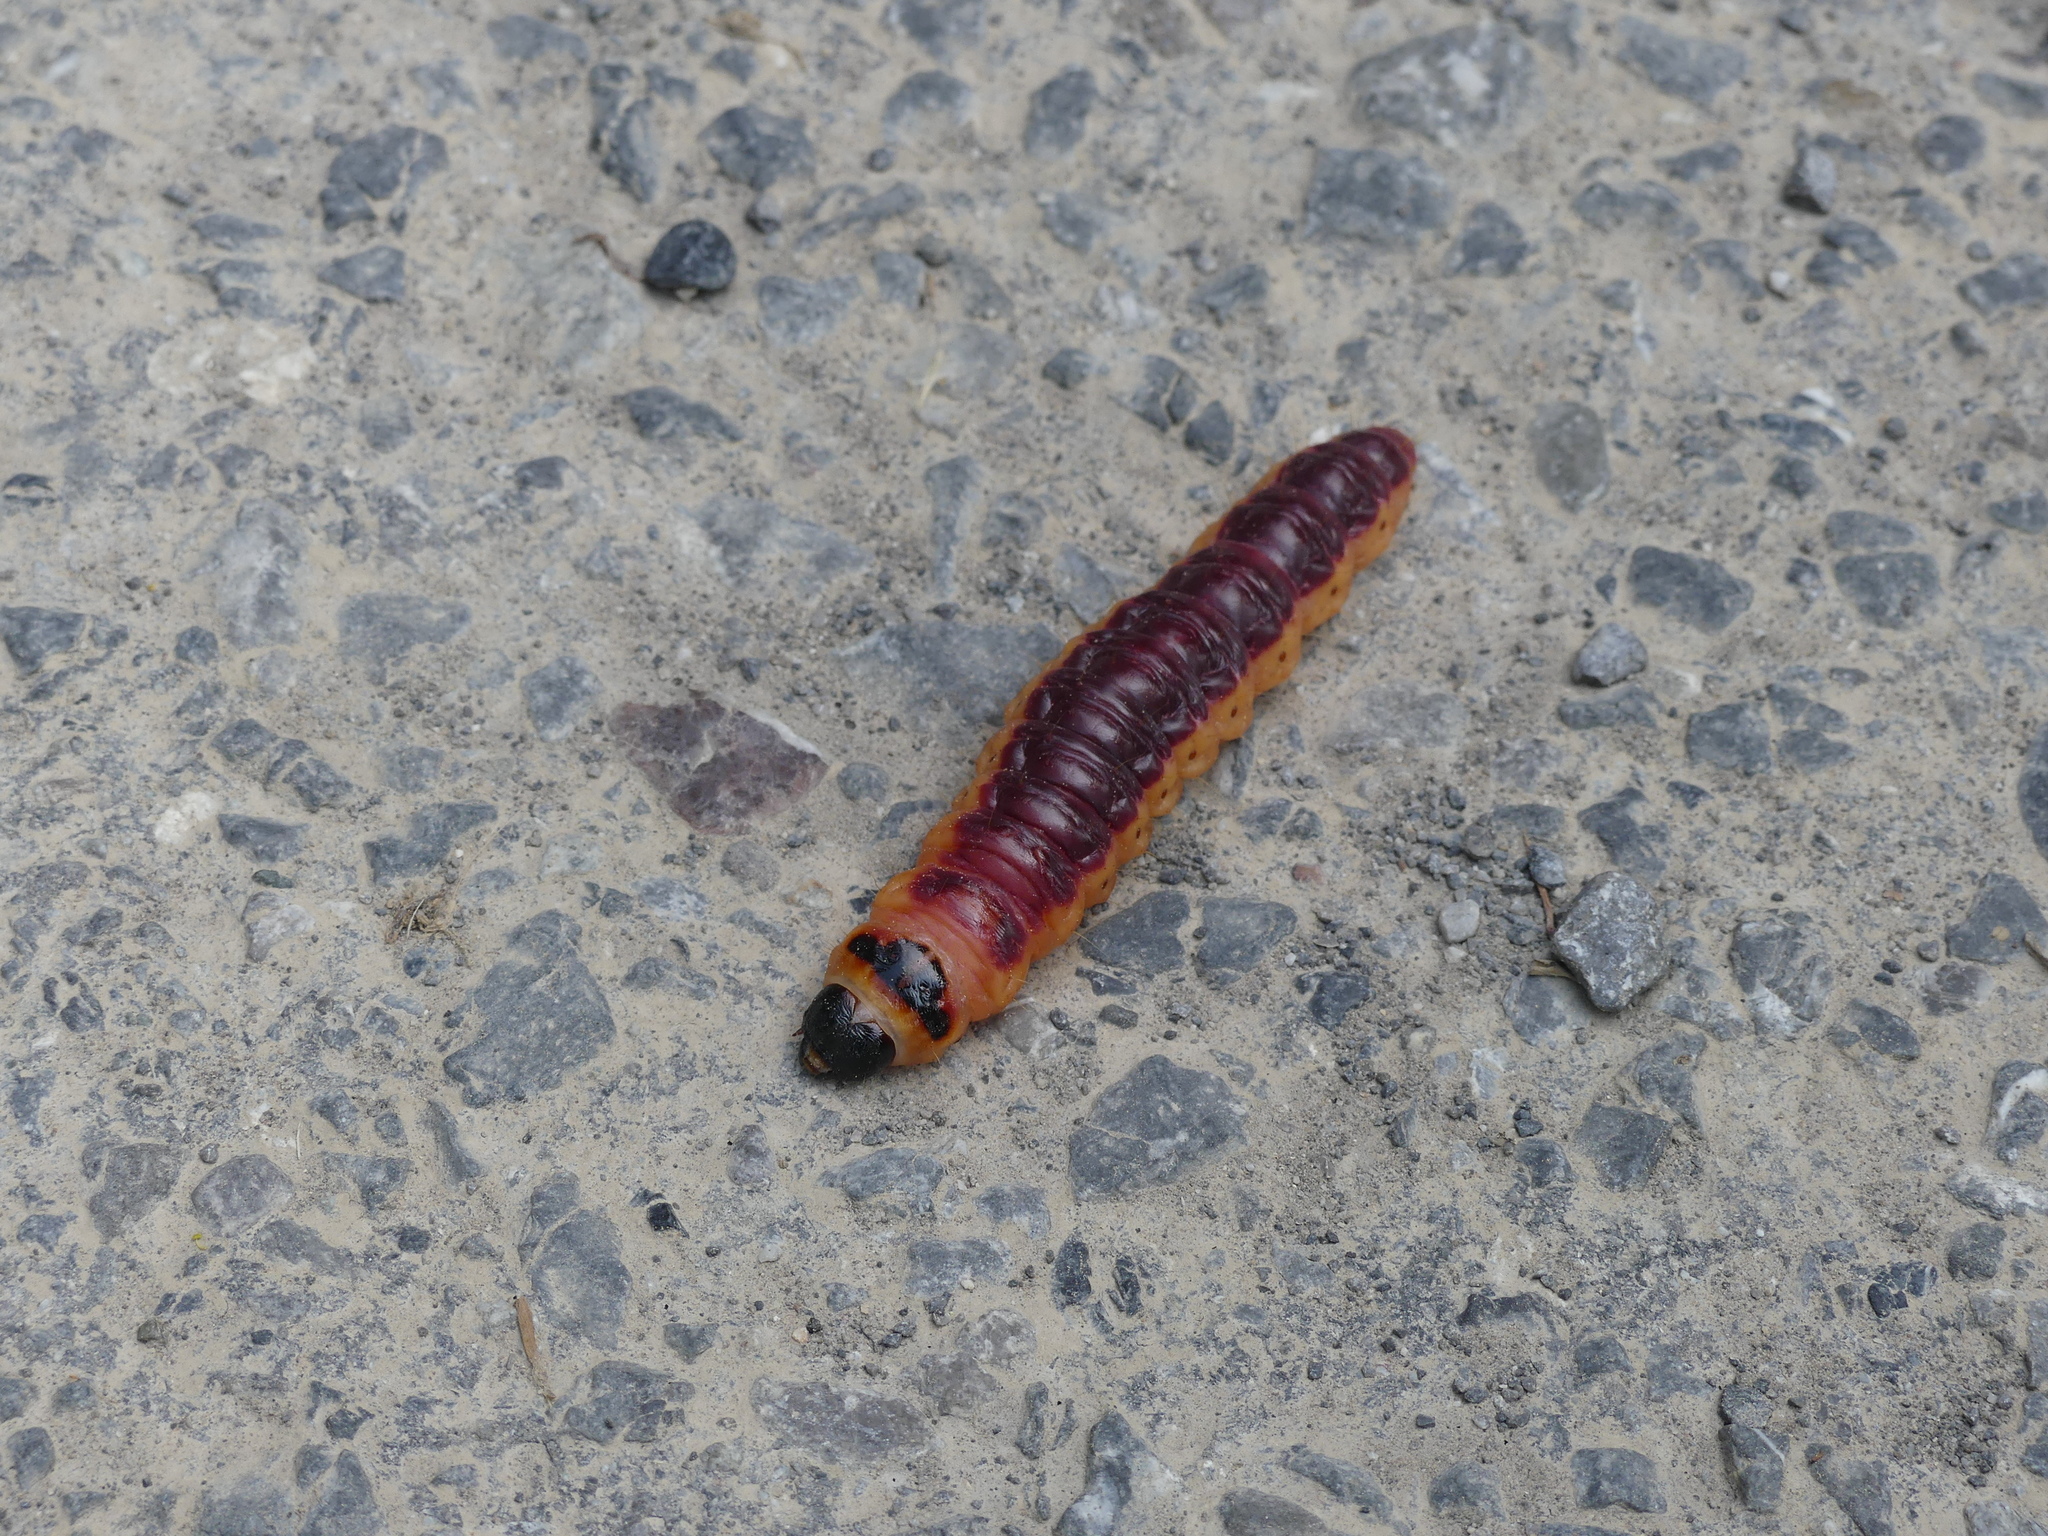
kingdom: Animalia
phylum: Arthropoda
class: Insecta
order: Lepidoptera
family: Cossidae
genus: Cossus
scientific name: Cossus cossus
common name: Goat moth
